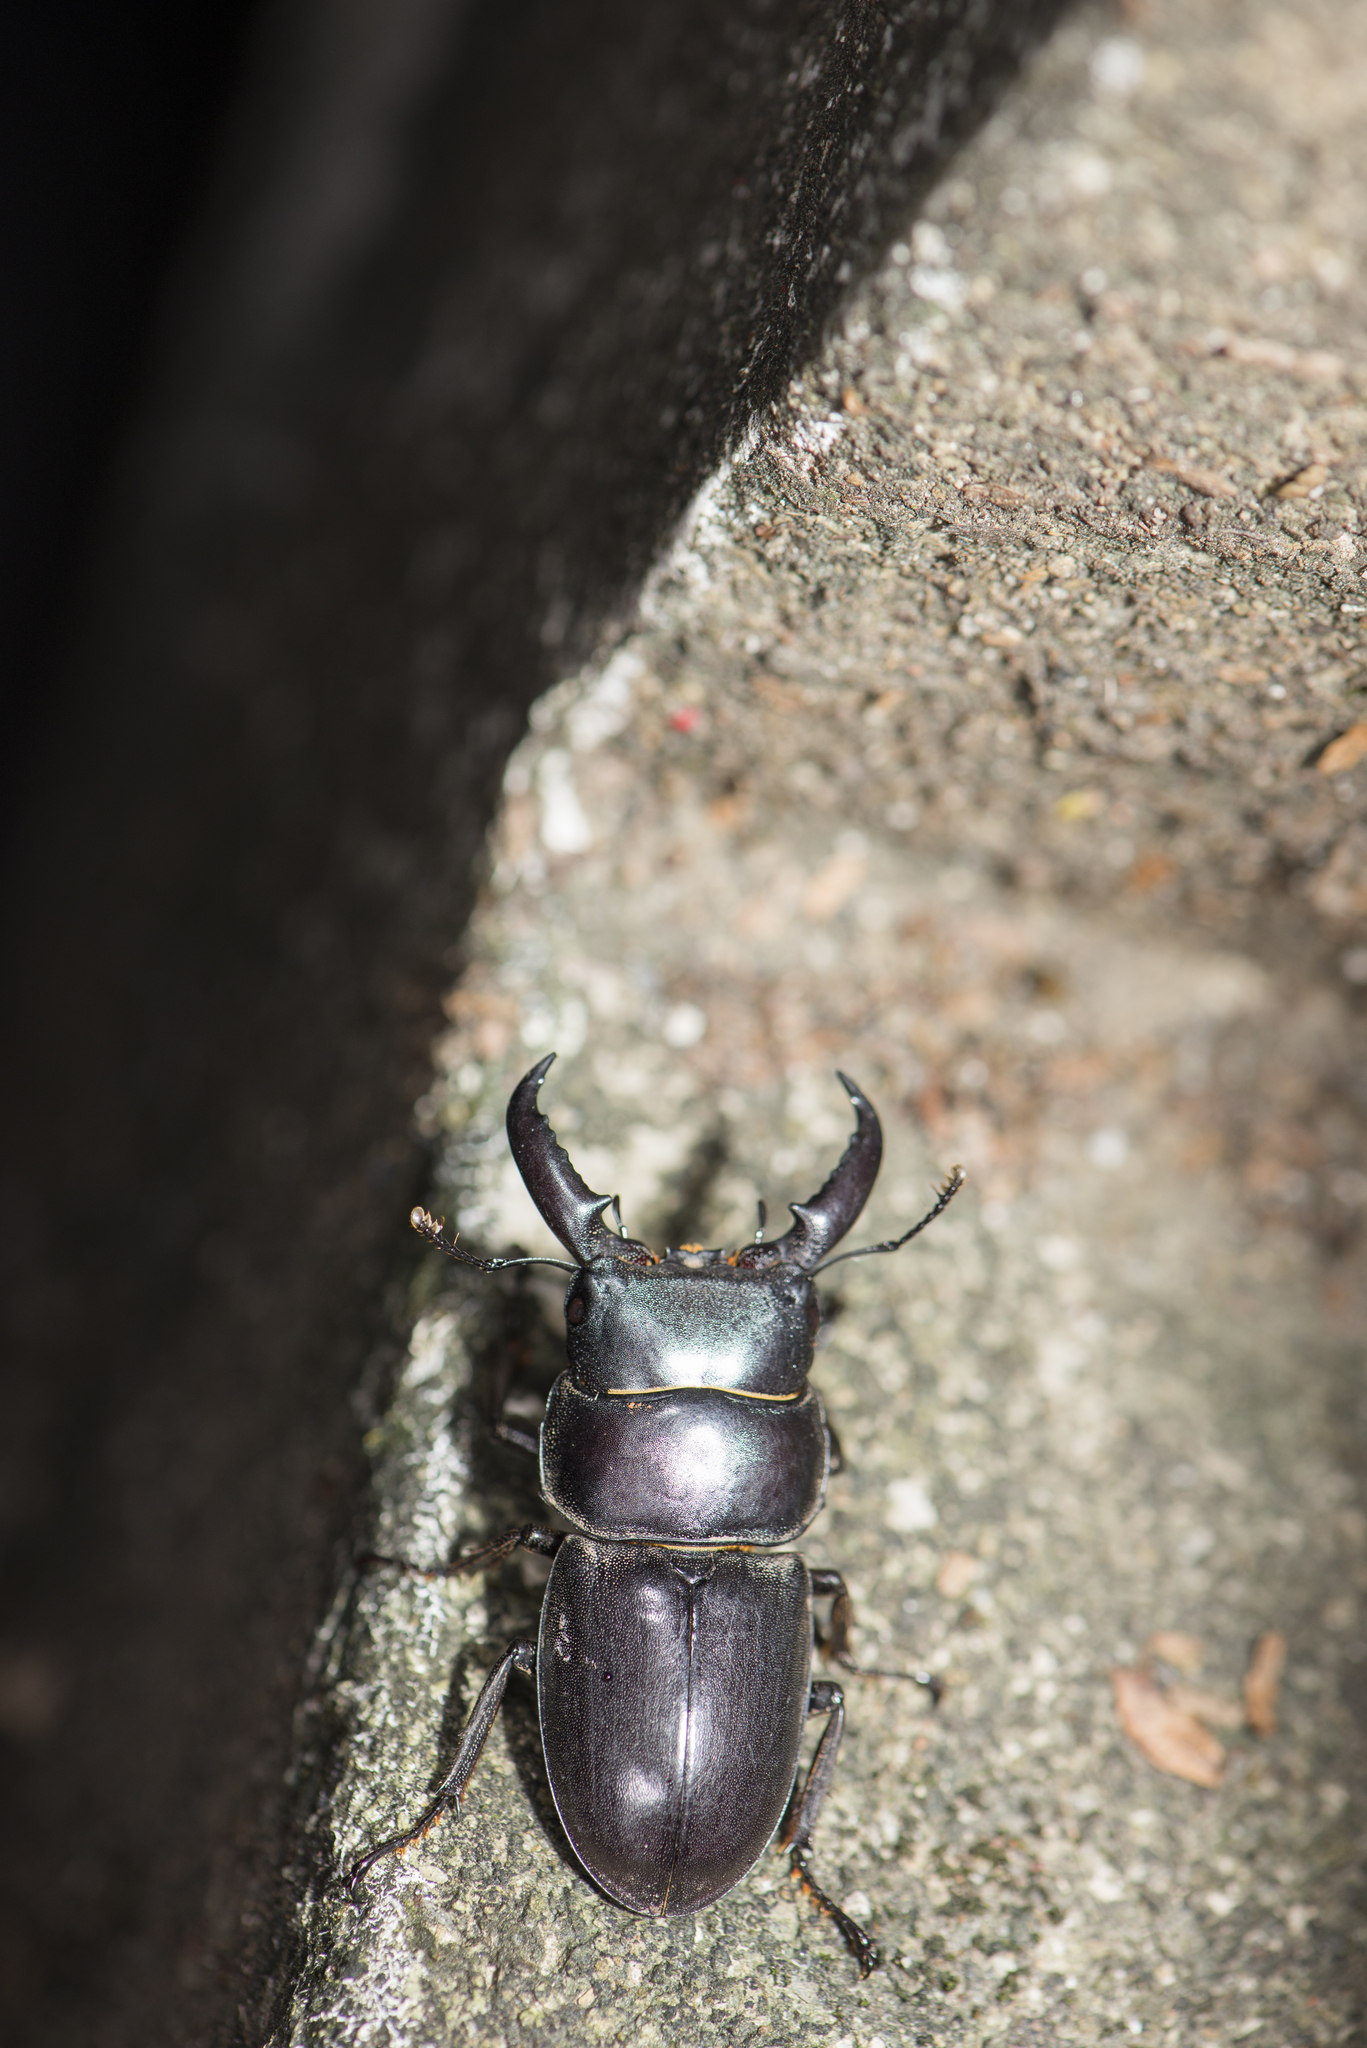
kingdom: Animalia
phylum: Arthropoda
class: Insecta
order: Coleoptera
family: Lucanidae
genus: Serrognathus
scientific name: Serrognathus titanus
